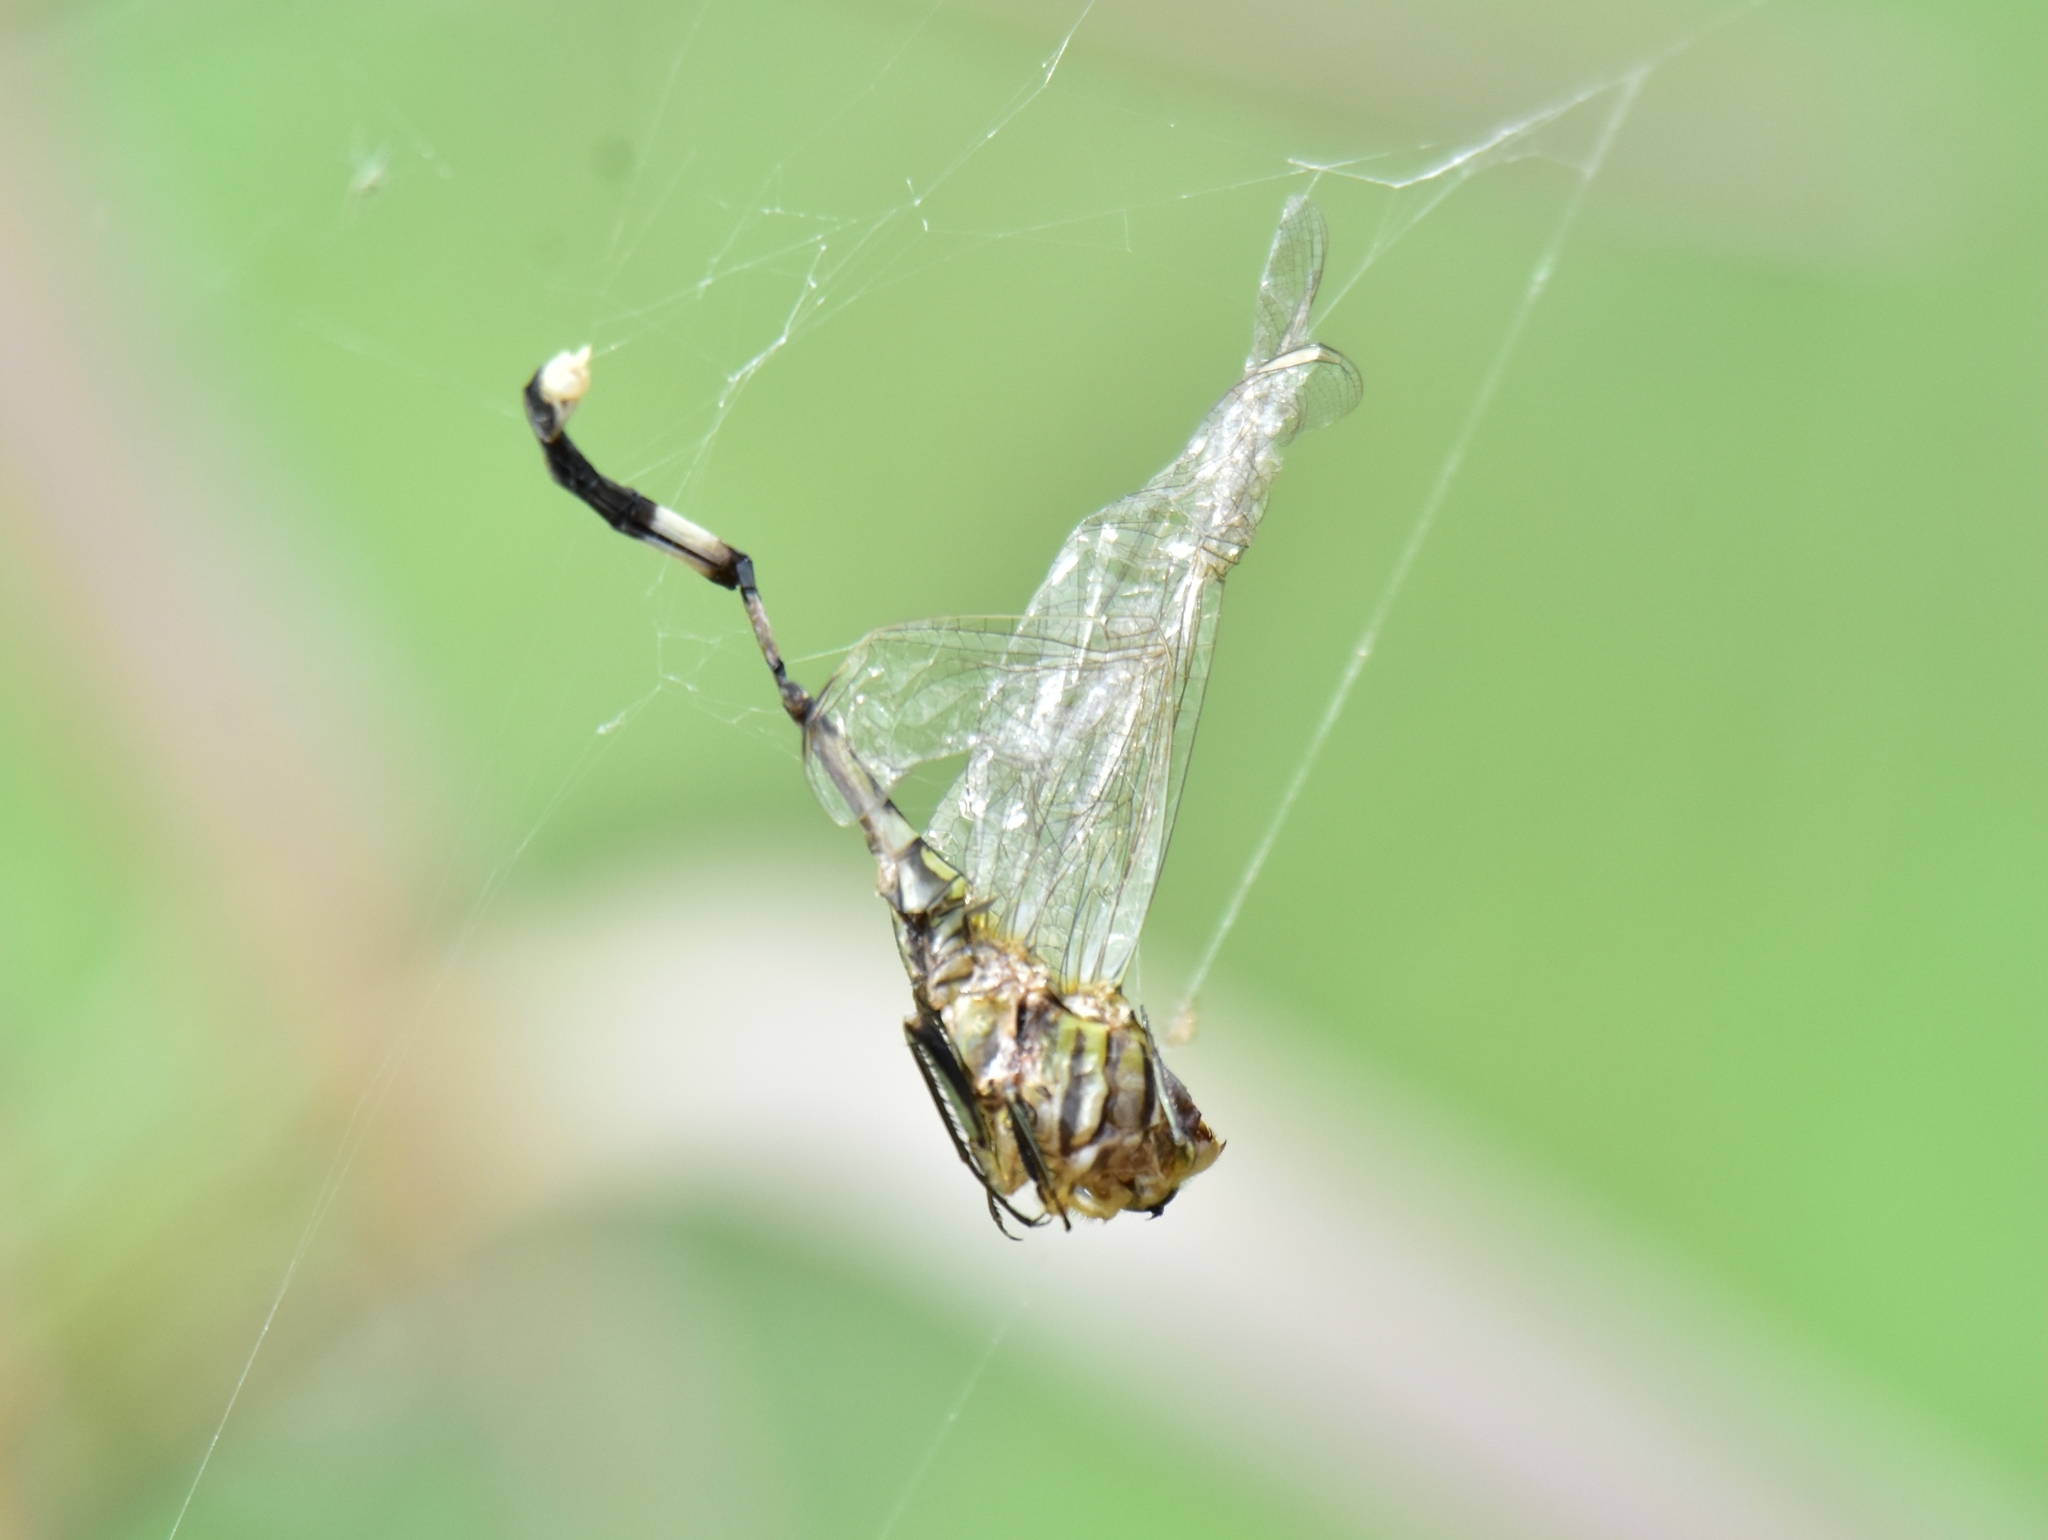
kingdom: Animalia
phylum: Arthropoda
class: Insecta
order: Odonata
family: Libellulidae
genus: Orthetrum
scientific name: Orthetrum sabina
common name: Slender skimmer
